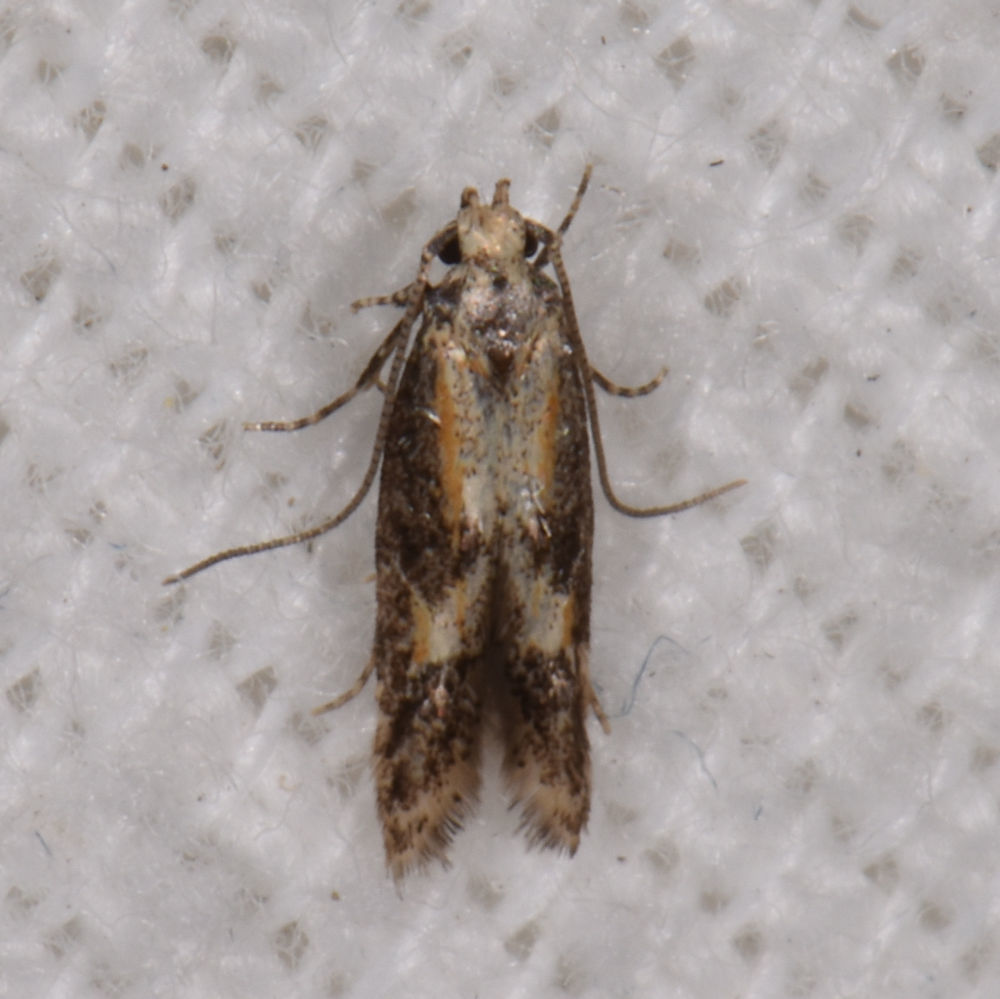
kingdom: Animalia
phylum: Arthropoda
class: Insecta
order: Lepidoptera
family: Elachistidae
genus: Blastodacna
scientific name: Blastodacna atra
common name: Apple pith moth
